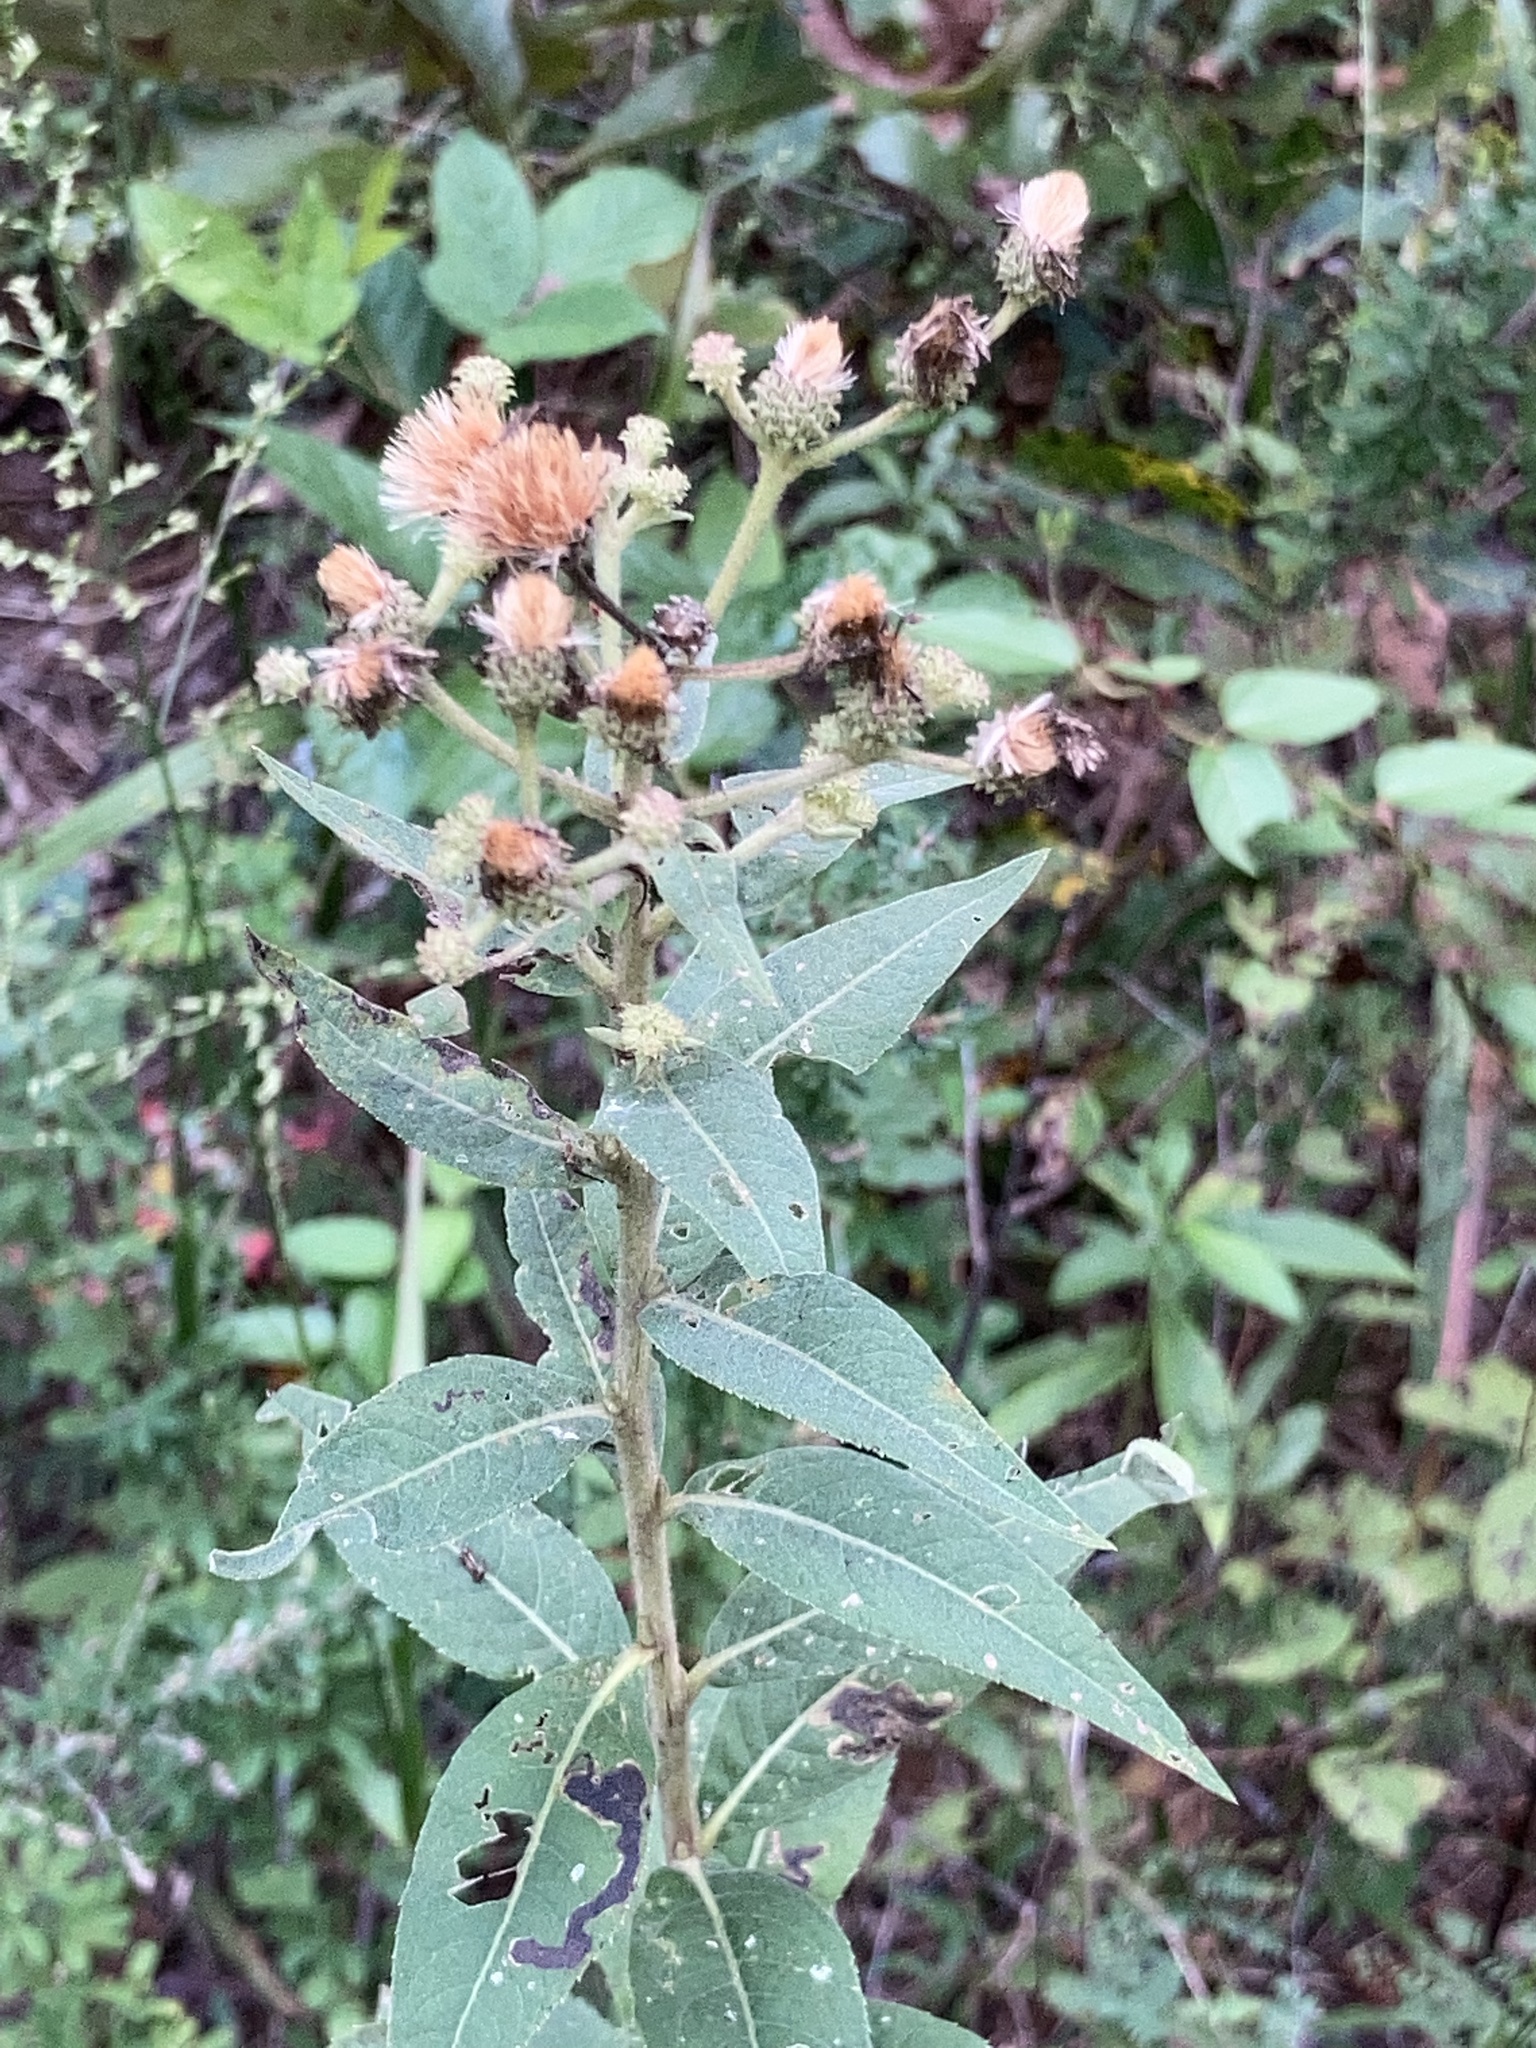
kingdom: Plantae
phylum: Tracheophyta
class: Magnoliopsida
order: Asterales
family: Asteraceae
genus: Vernonia
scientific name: Vernonia baldwinii
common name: Western ironweed
